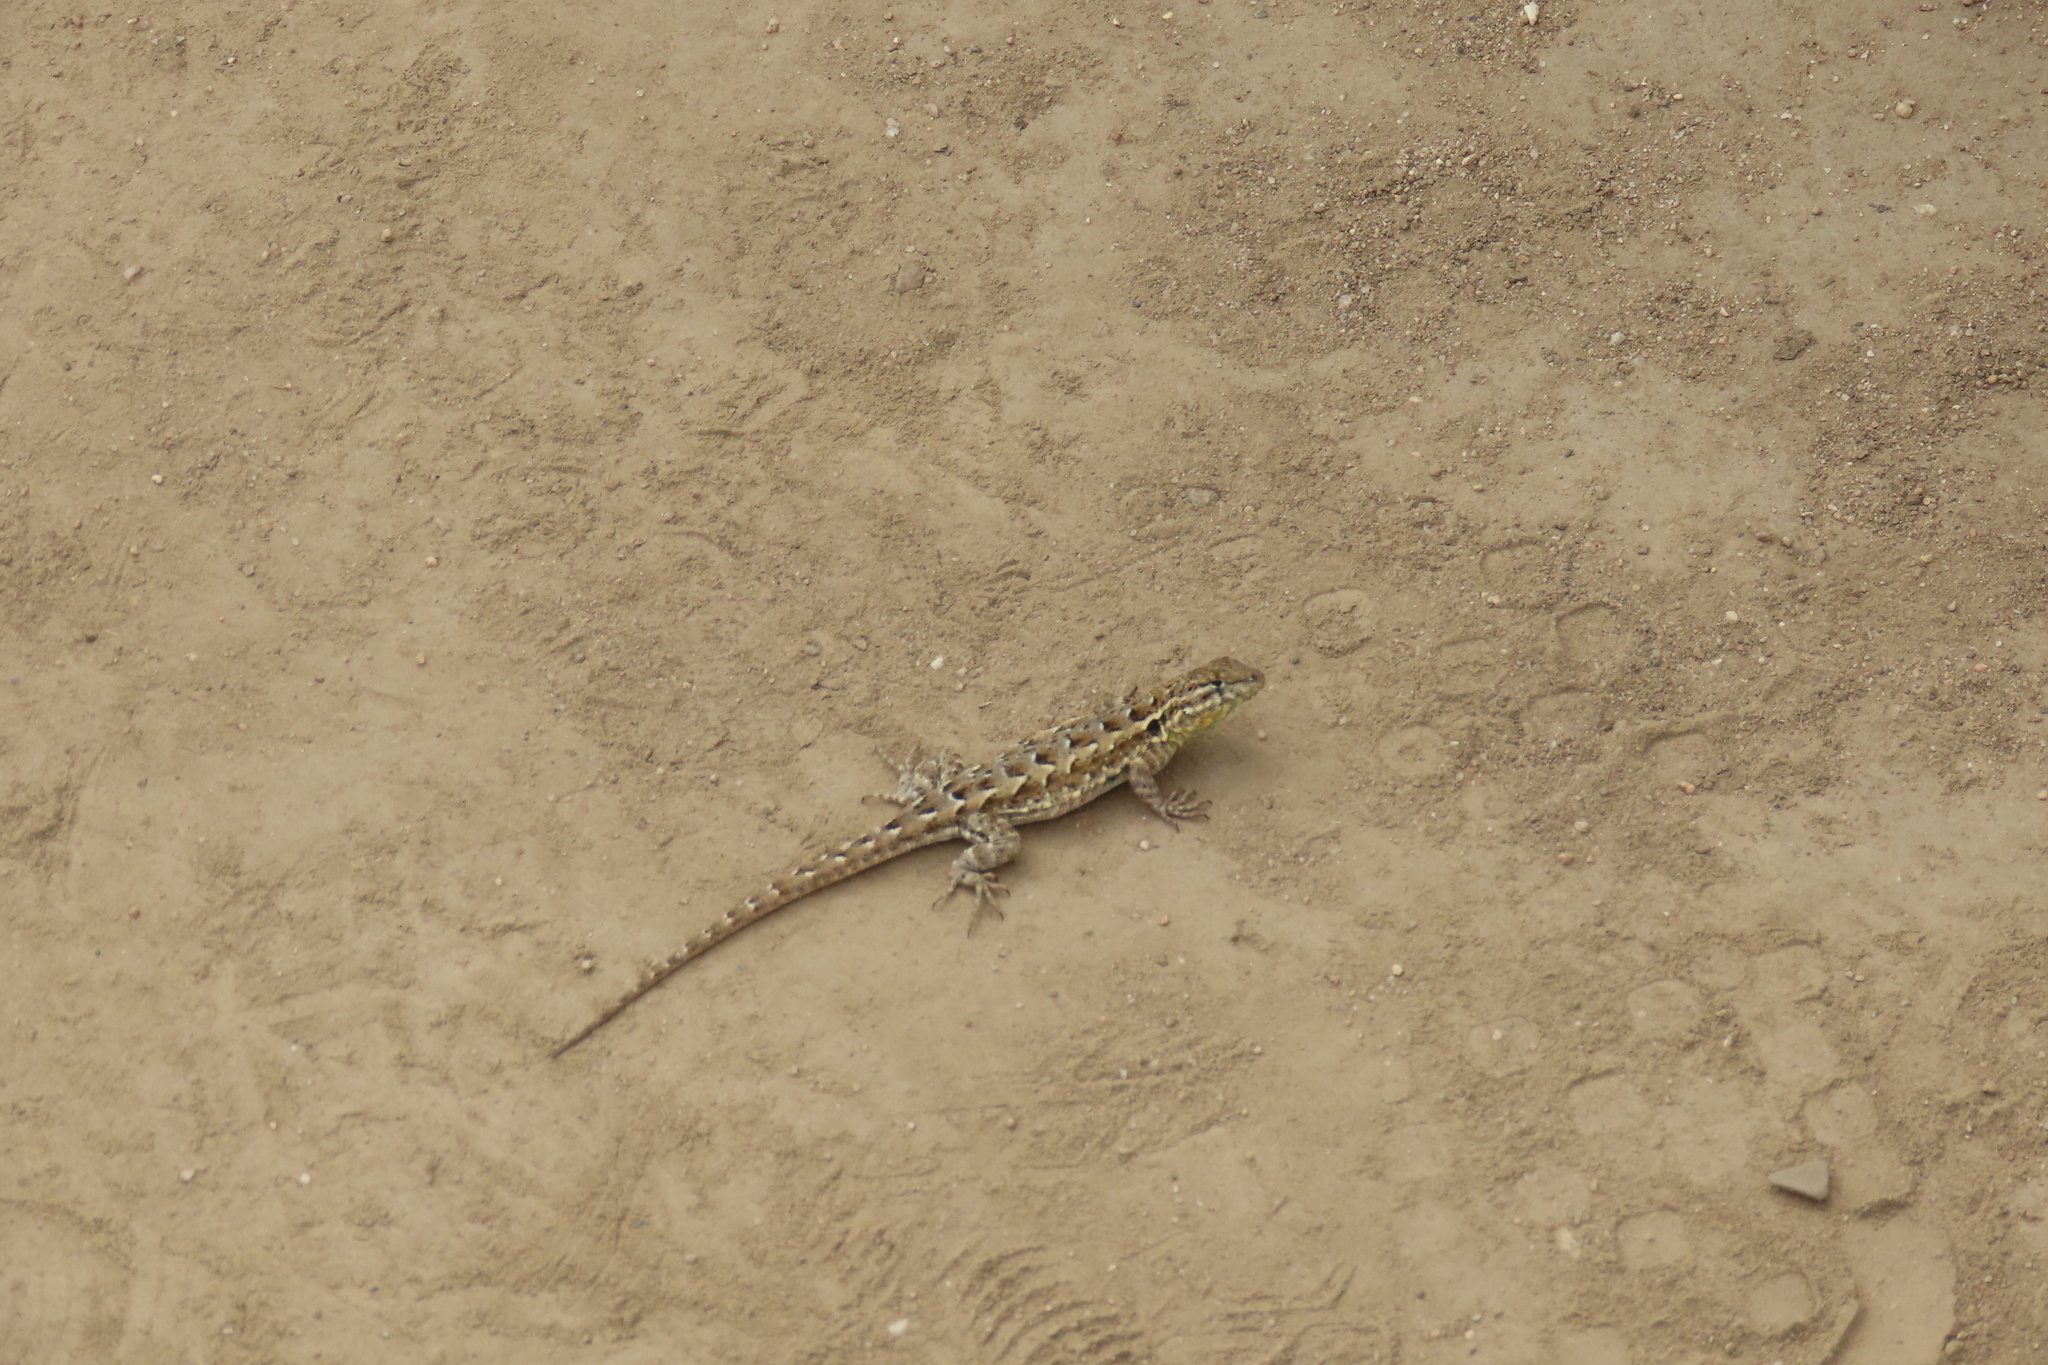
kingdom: Animalia
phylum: Chordata
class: Squamata
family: Phrynosomatidae
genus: Uta
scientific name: Uta stansburiana
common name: Side-blotched lizard
